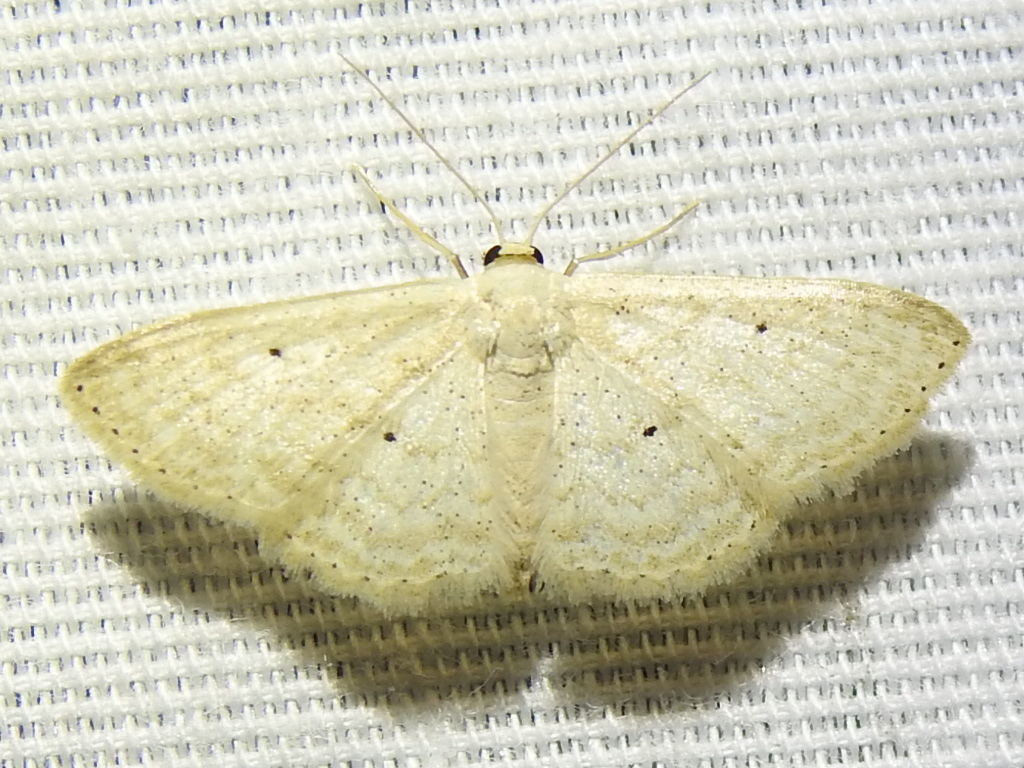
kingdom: Animalia
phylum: Arthropoda
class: Insecta
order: Lepidoptera
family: Geometridae
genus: Scopula
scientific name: Scopula benitaria
